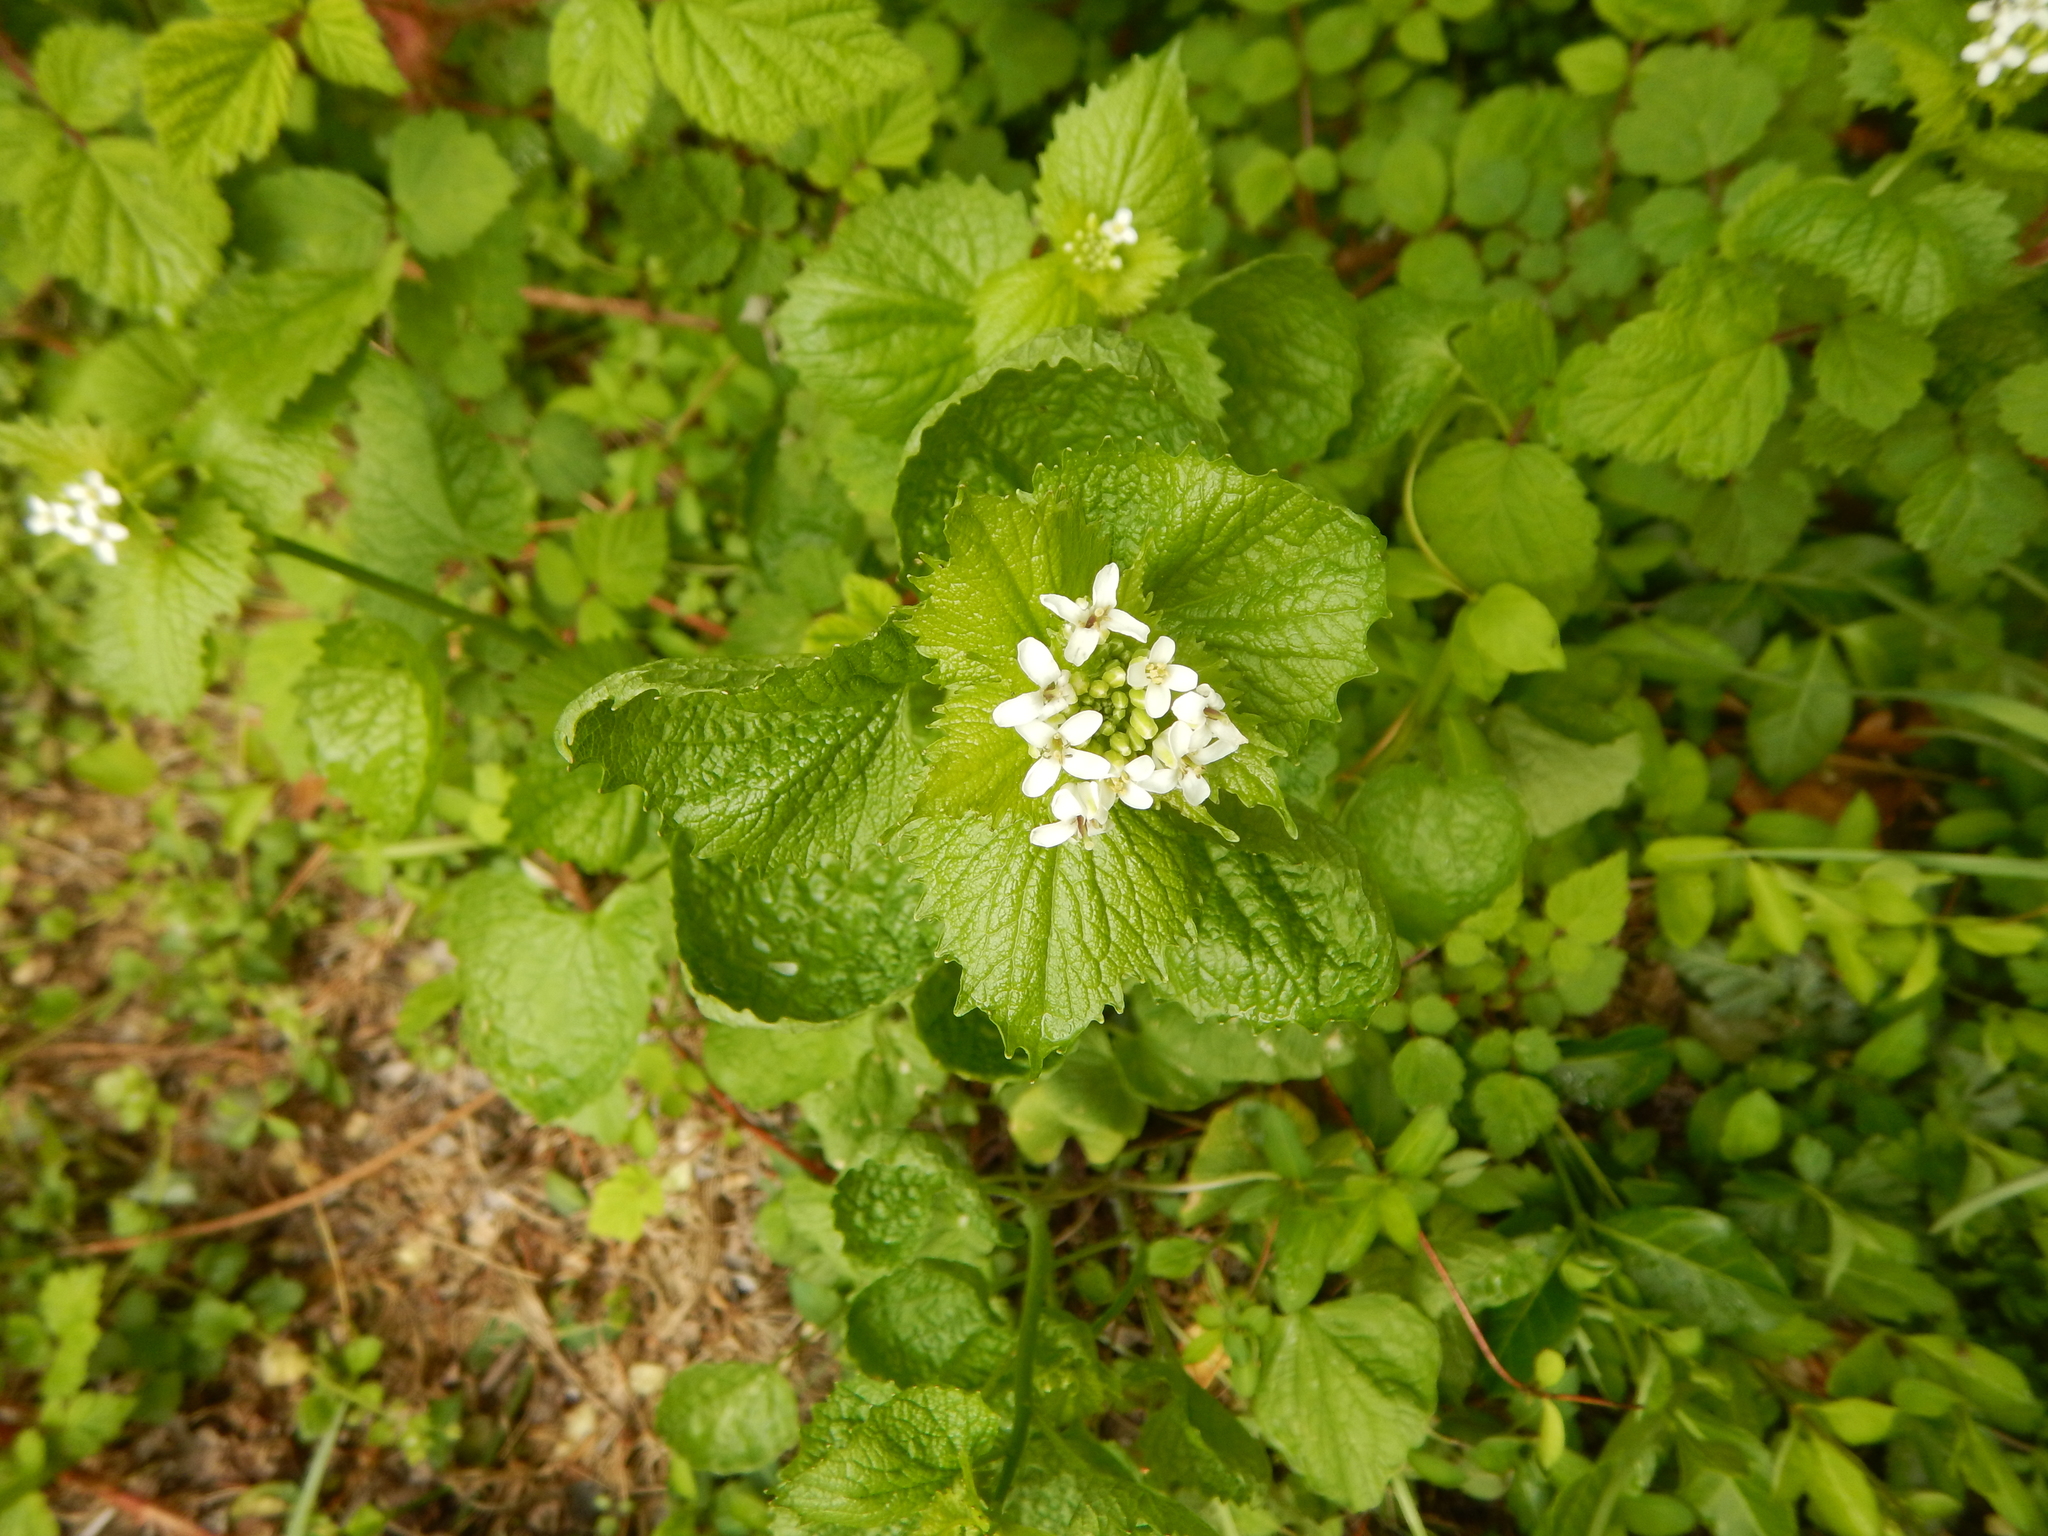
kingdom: Plantae
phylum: Tracheophyta
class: Magnoliopsida
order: Brassicales
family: Brassicaceae
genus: Alliaria
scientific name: Alliaria petiolata
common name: Garlic mustard
